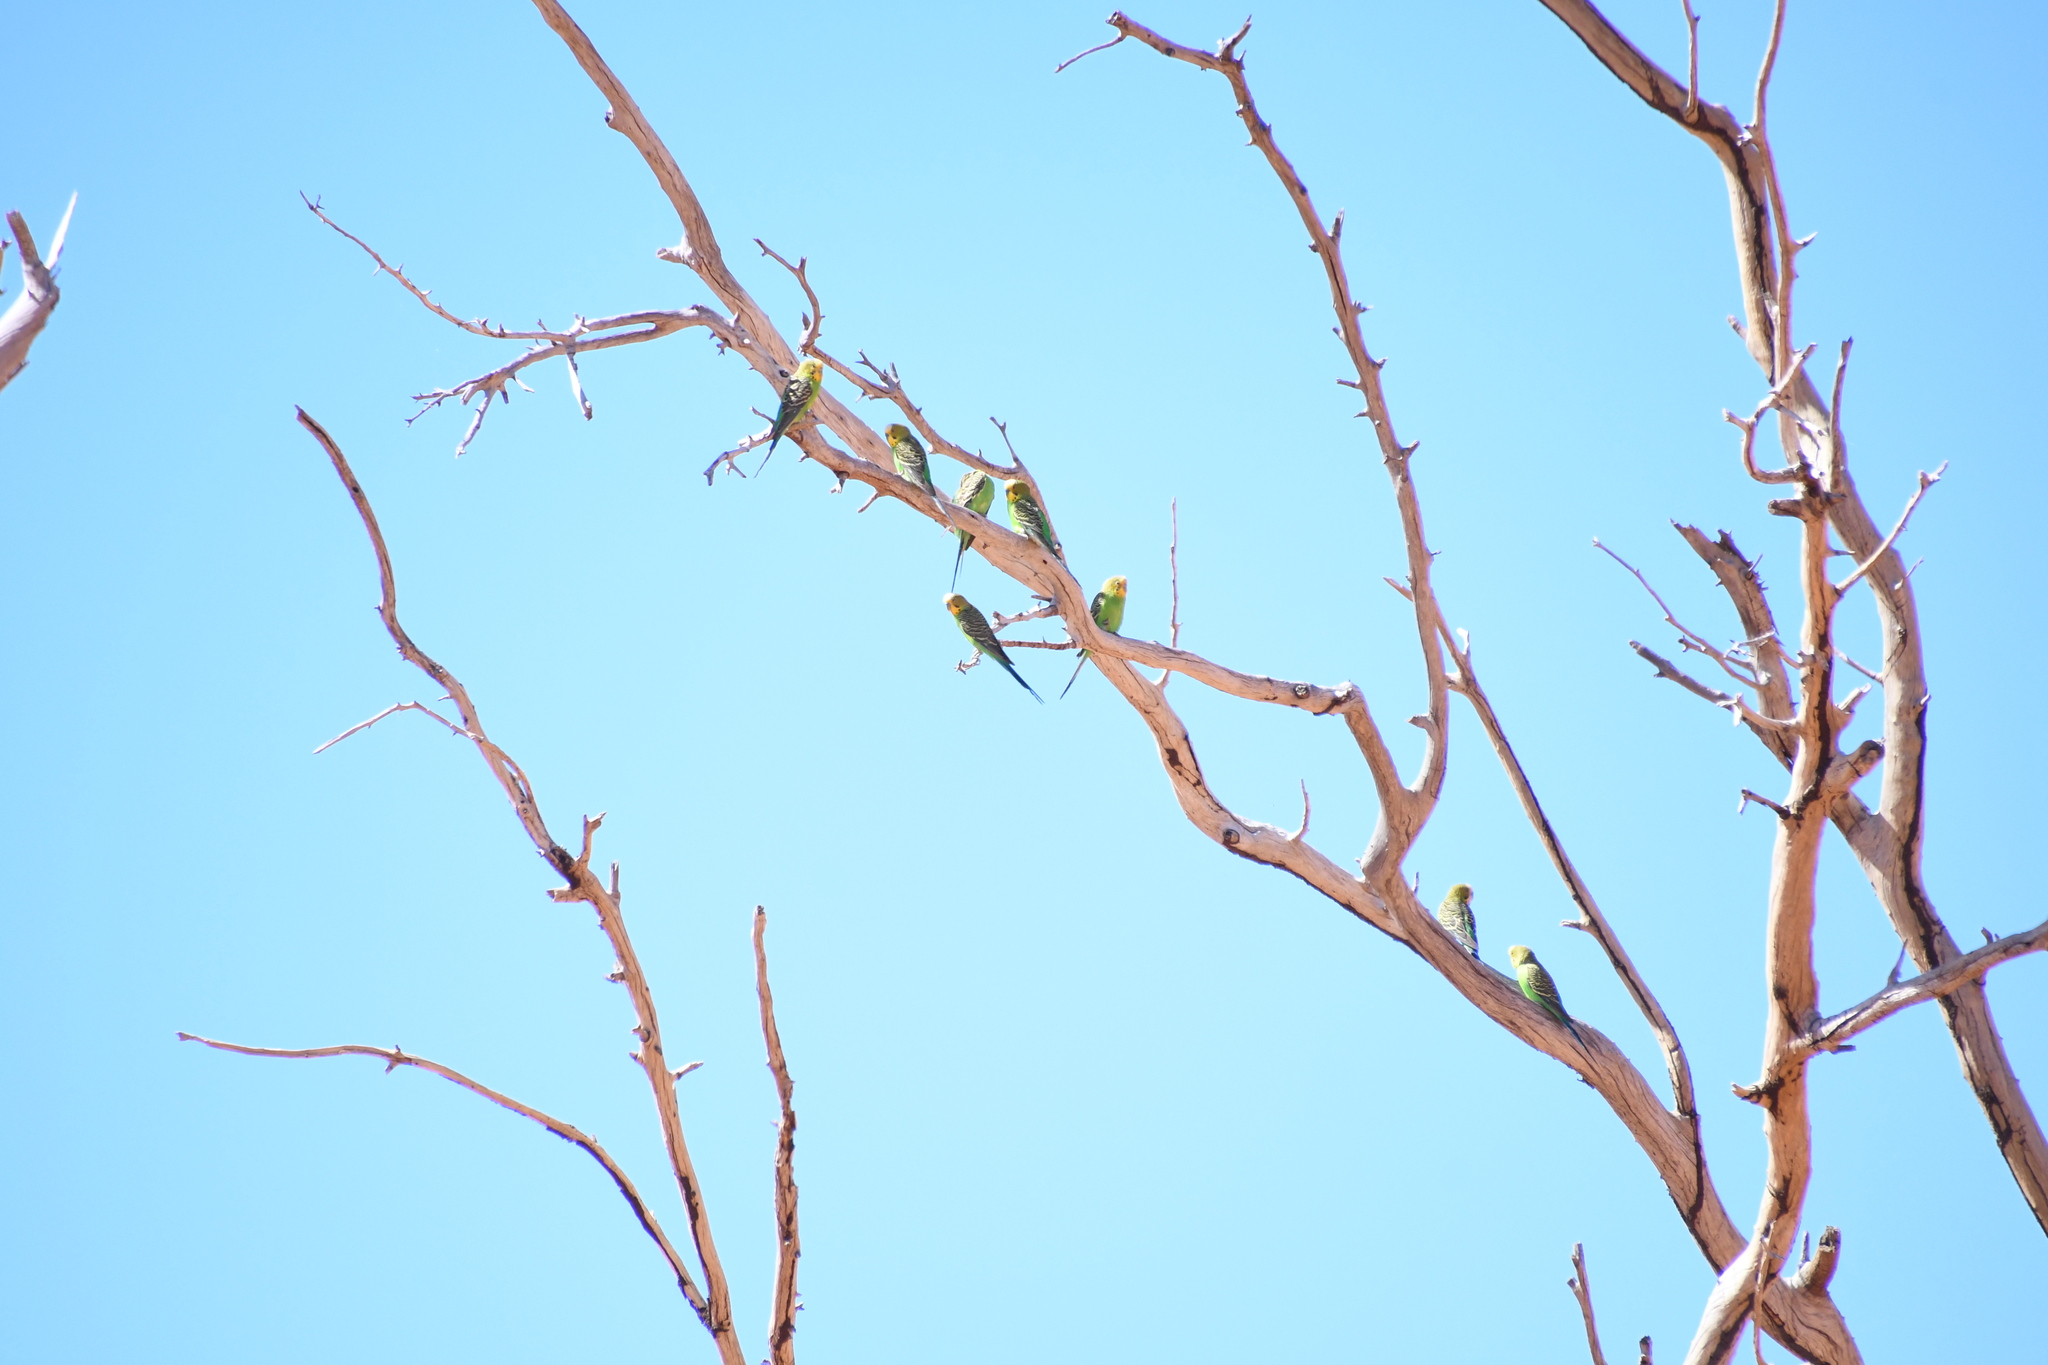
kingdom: Animalia
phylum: Chordata
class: Aves
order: Psittaciformes
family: Psittacidae
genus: Melopsittacus
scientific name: Melopsittacus undulatus
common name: Budgerigar
